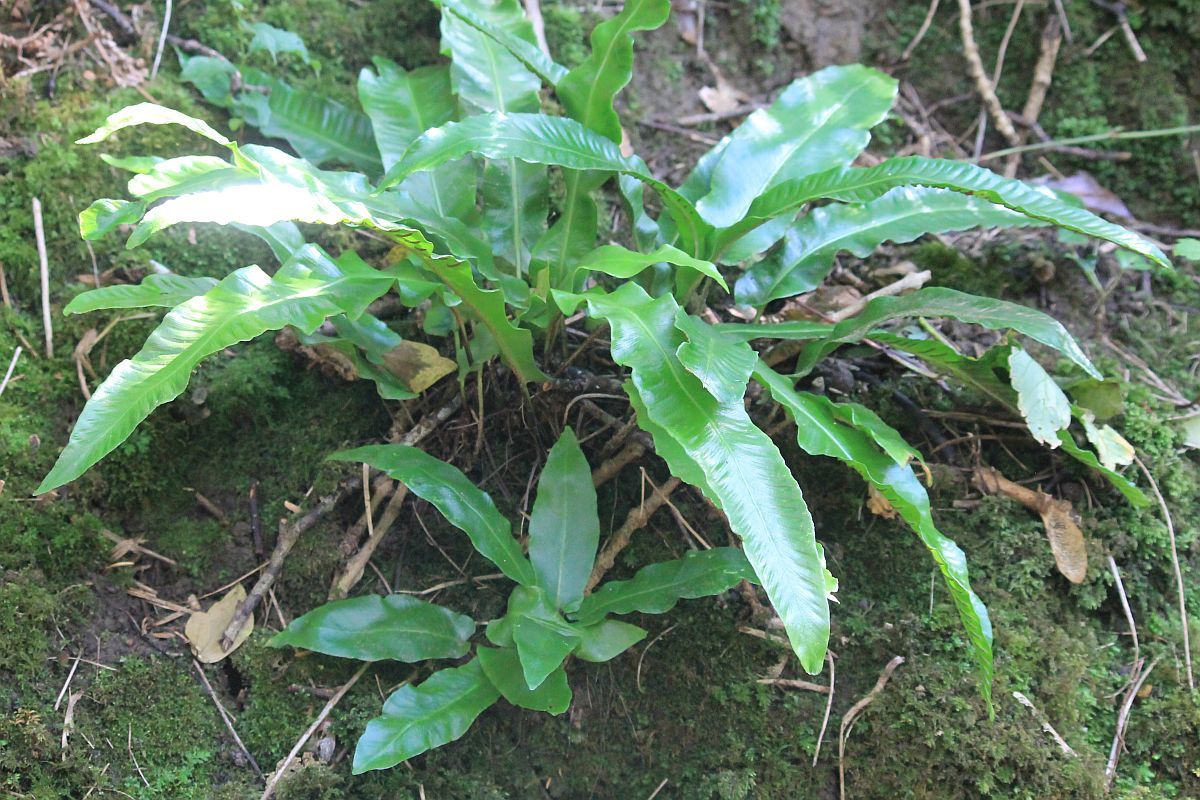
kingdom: Plantae
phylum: Tracheophyta
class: Polypodiopsida
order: Polypodiales
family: Aspleniaceae
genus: Asplenium
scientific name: Asplenium scolopendrium
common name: Hart's-tongue fern
